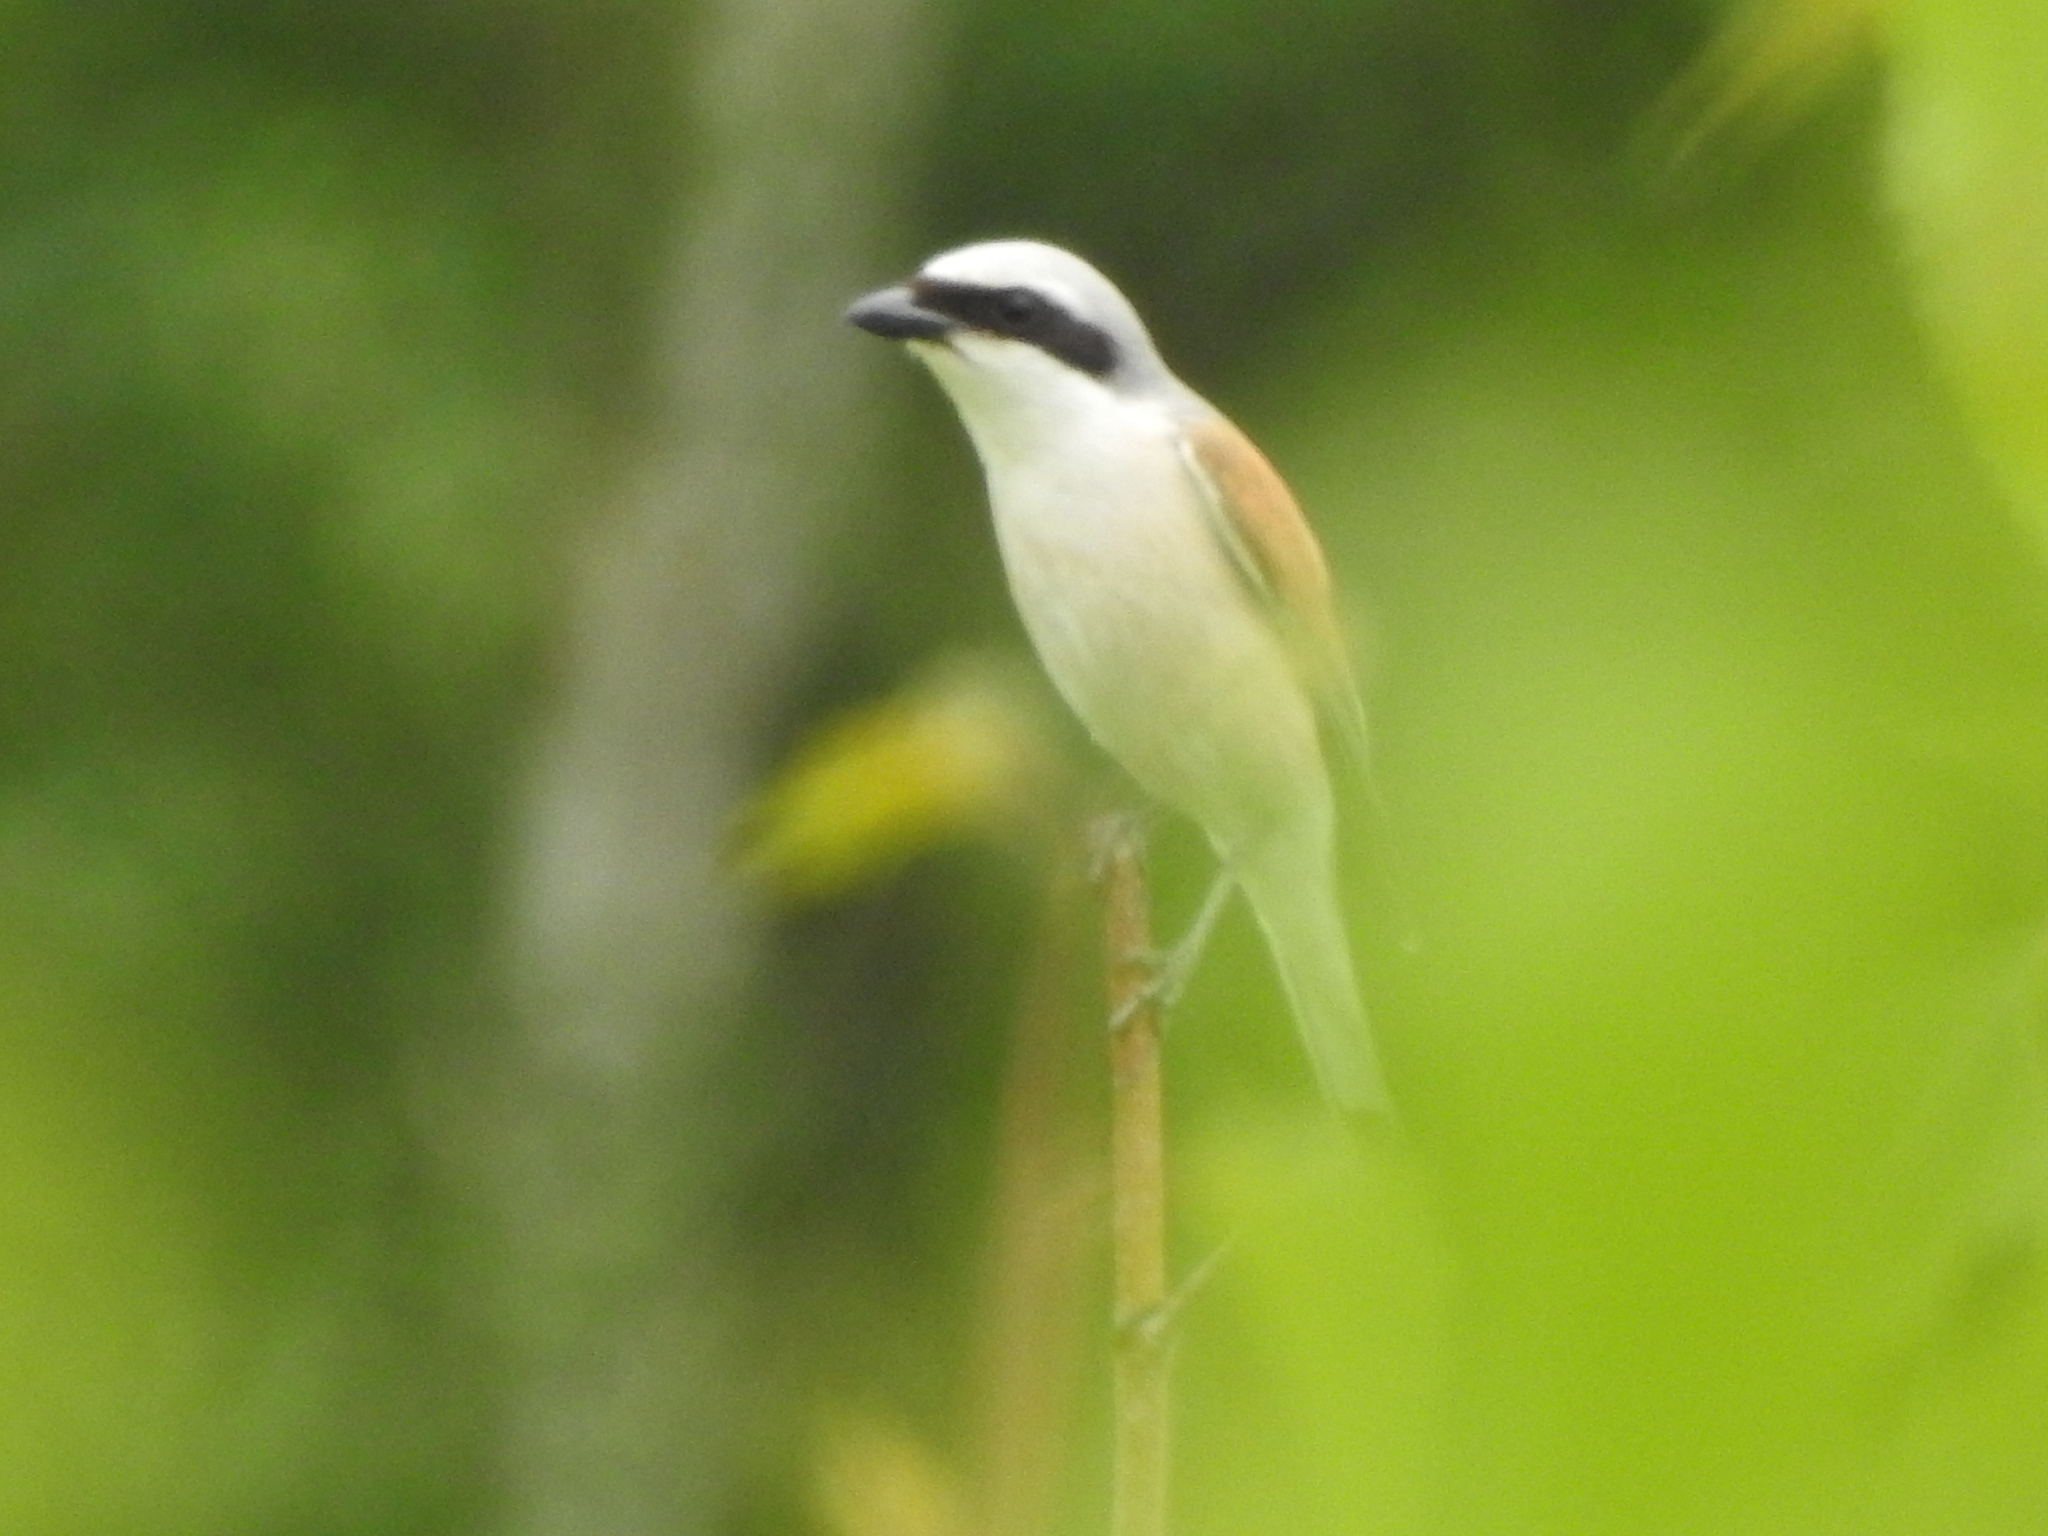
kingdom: Animalia
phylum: Chordata
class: Aves
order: Passeriformes
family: Laniidae
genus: Lanius
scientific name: Lanius collurio
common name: Red-backed shrike
